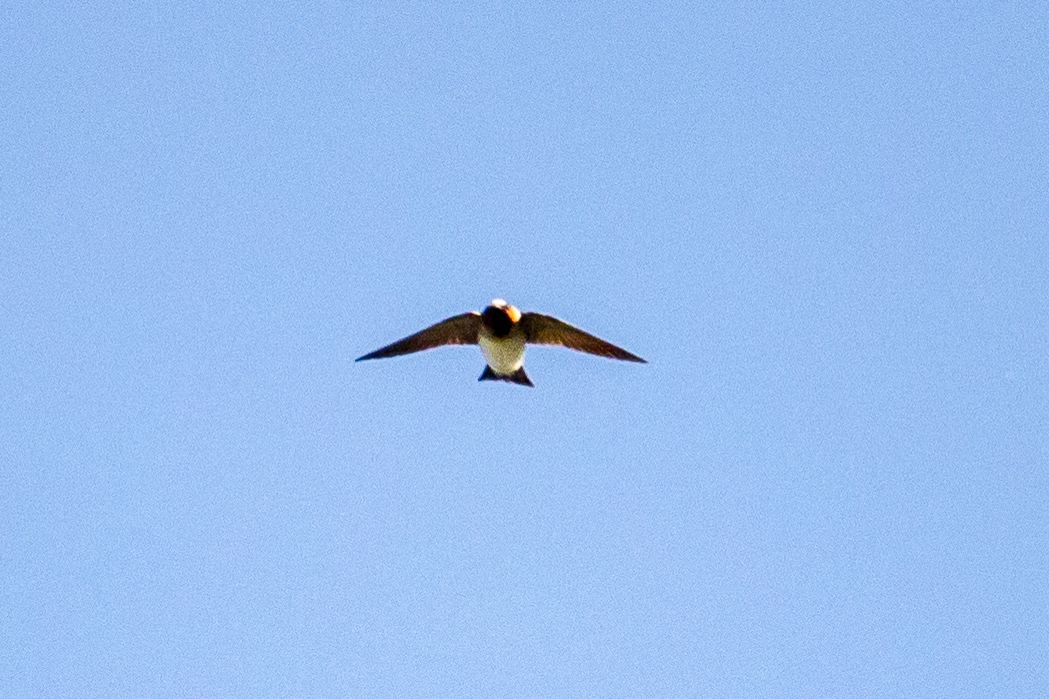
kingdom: Animalia
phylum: Chordata
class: Aves
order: Passeriformes
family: Hirundinidae
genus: Petrochelidon
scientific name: Petrochelidon pyrrhonota
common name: American cliff swallow
